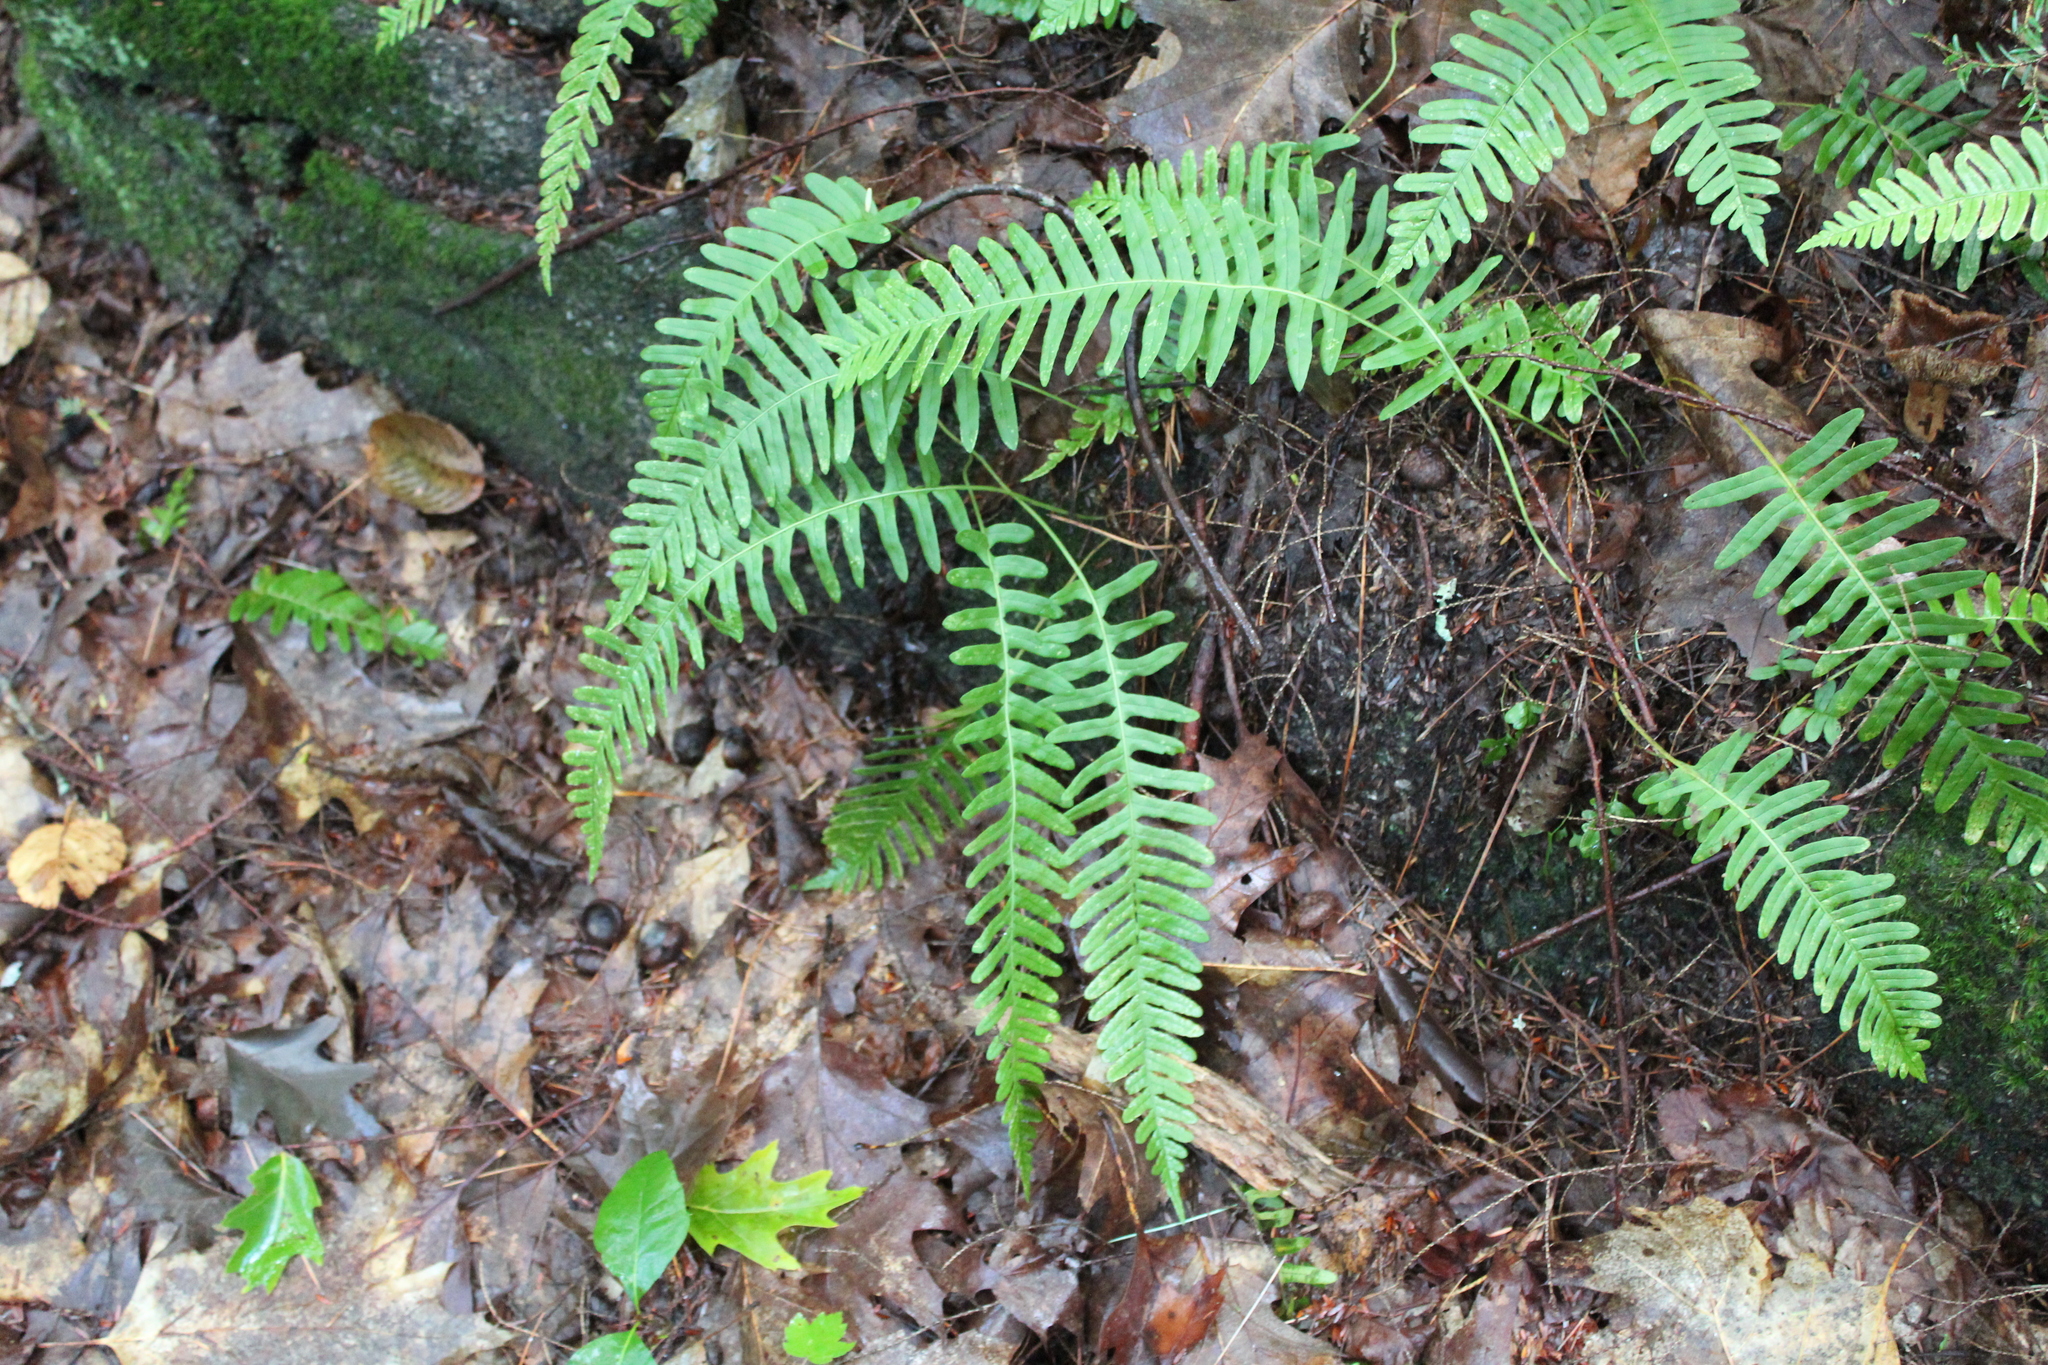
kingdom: Plantae
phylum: Tracheophyta
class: Polypodiopsida
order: Polypodiales
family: Polypodiaceae
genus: Polypodium
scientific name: Polypodium virginianum
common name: American wall fern
